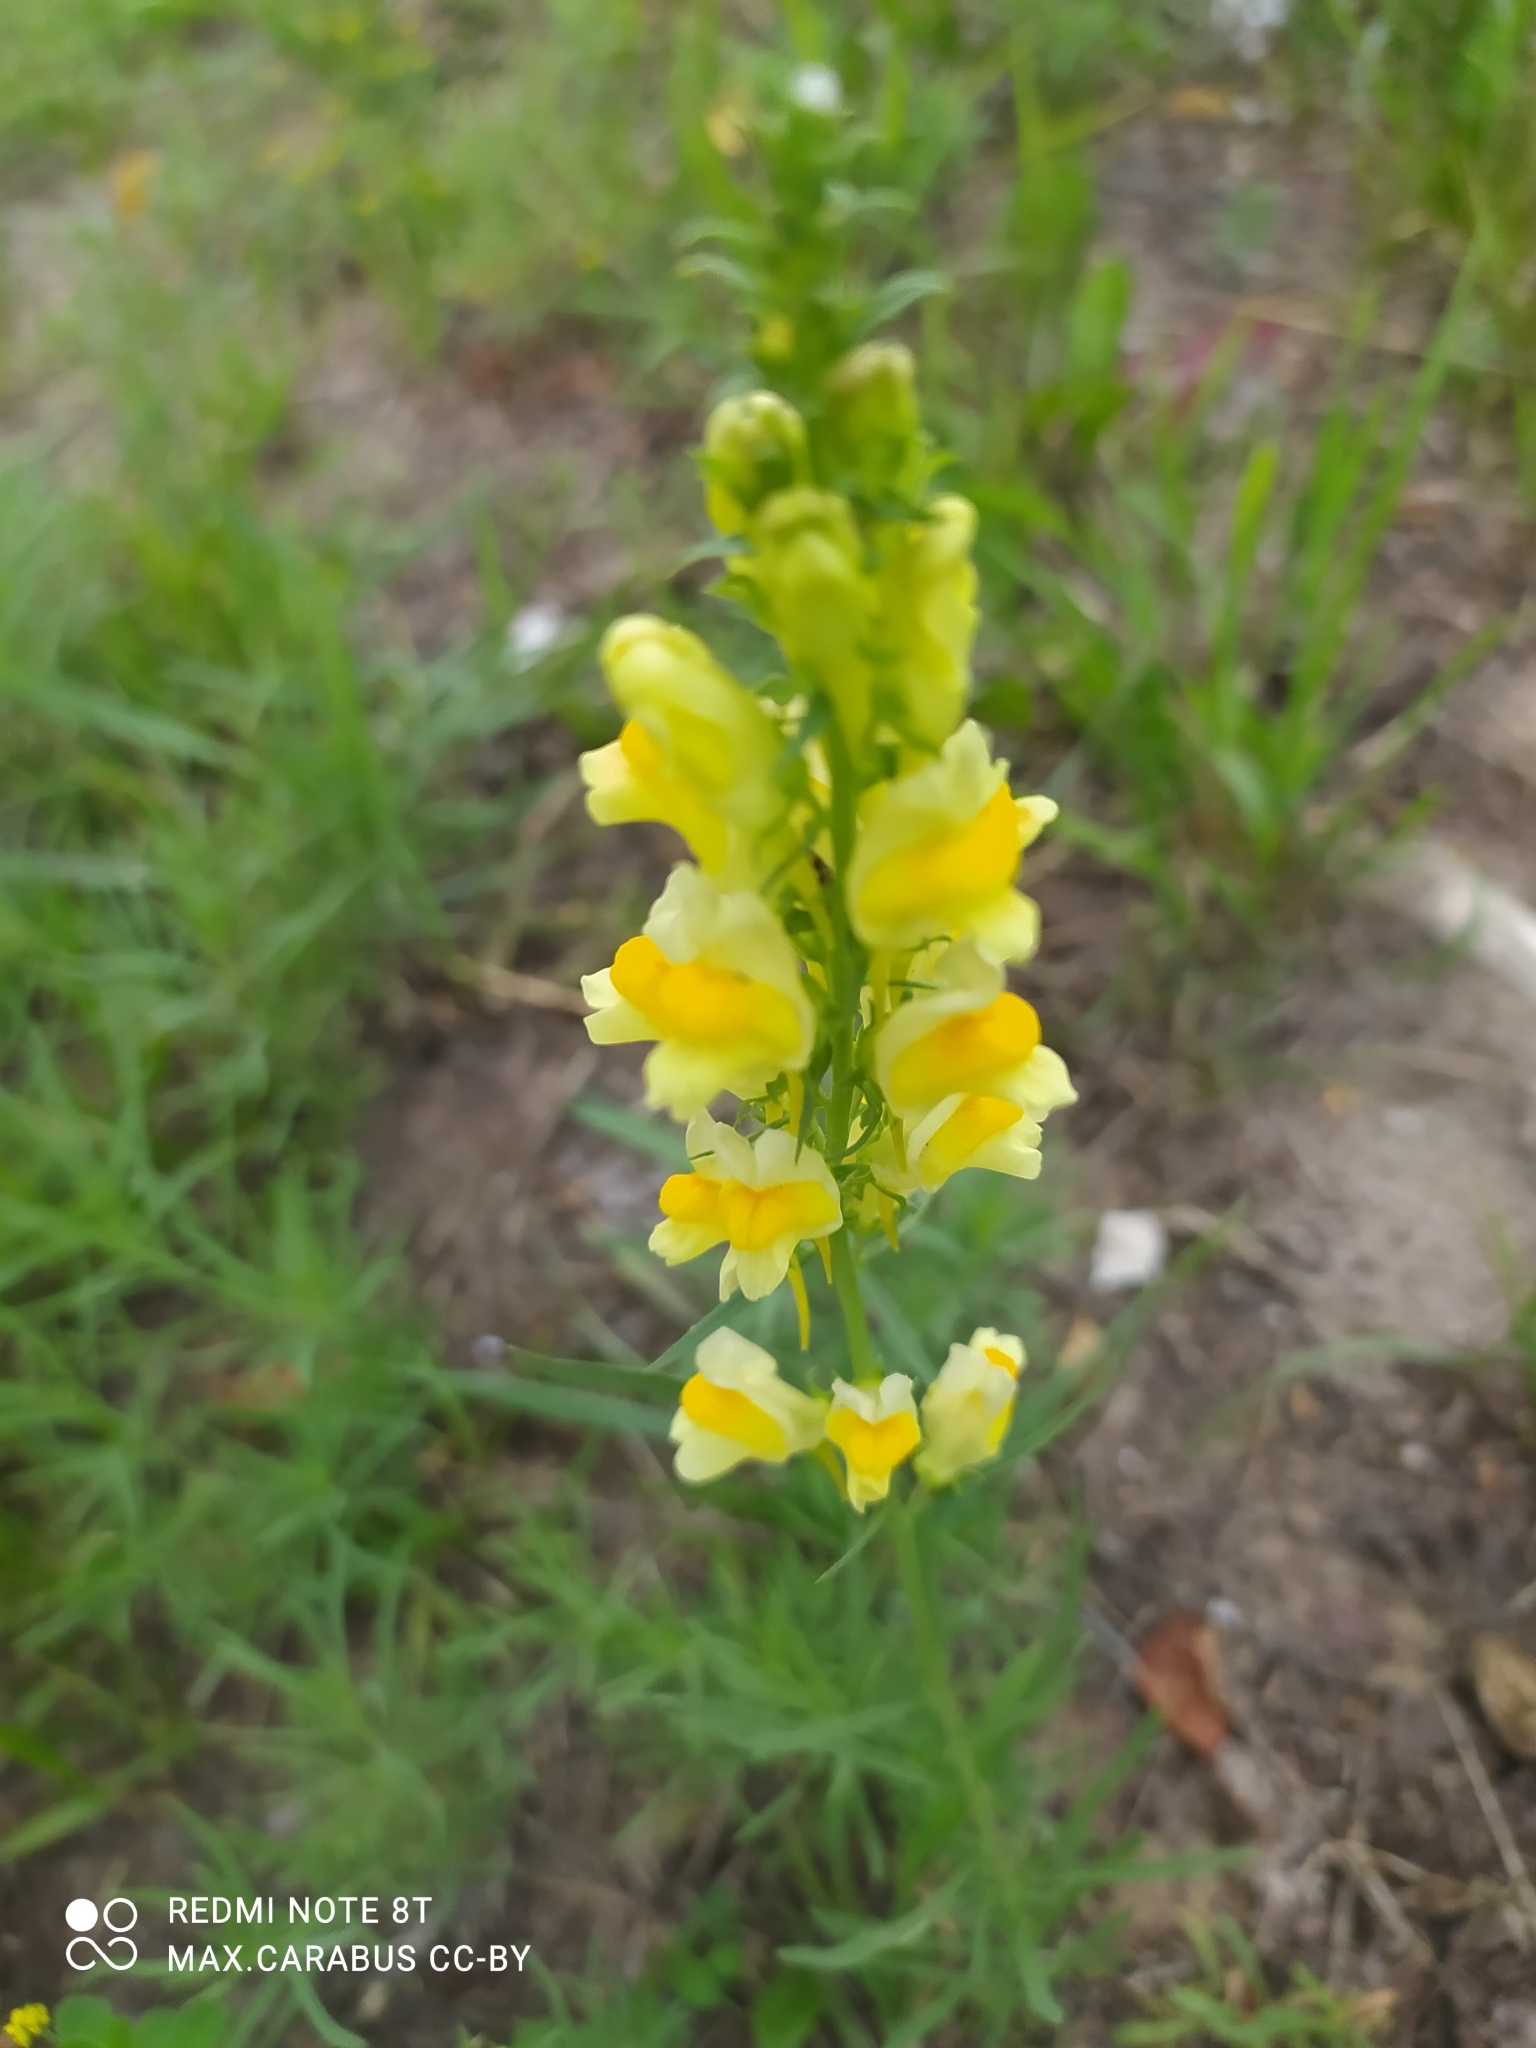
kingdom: Plantae
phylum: Tracheophyta
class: Magnoliopsida
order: Lamiales
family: Plantaginaceae
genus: Linaria
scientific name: Linaria vulgaris
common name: Butter and eggs
